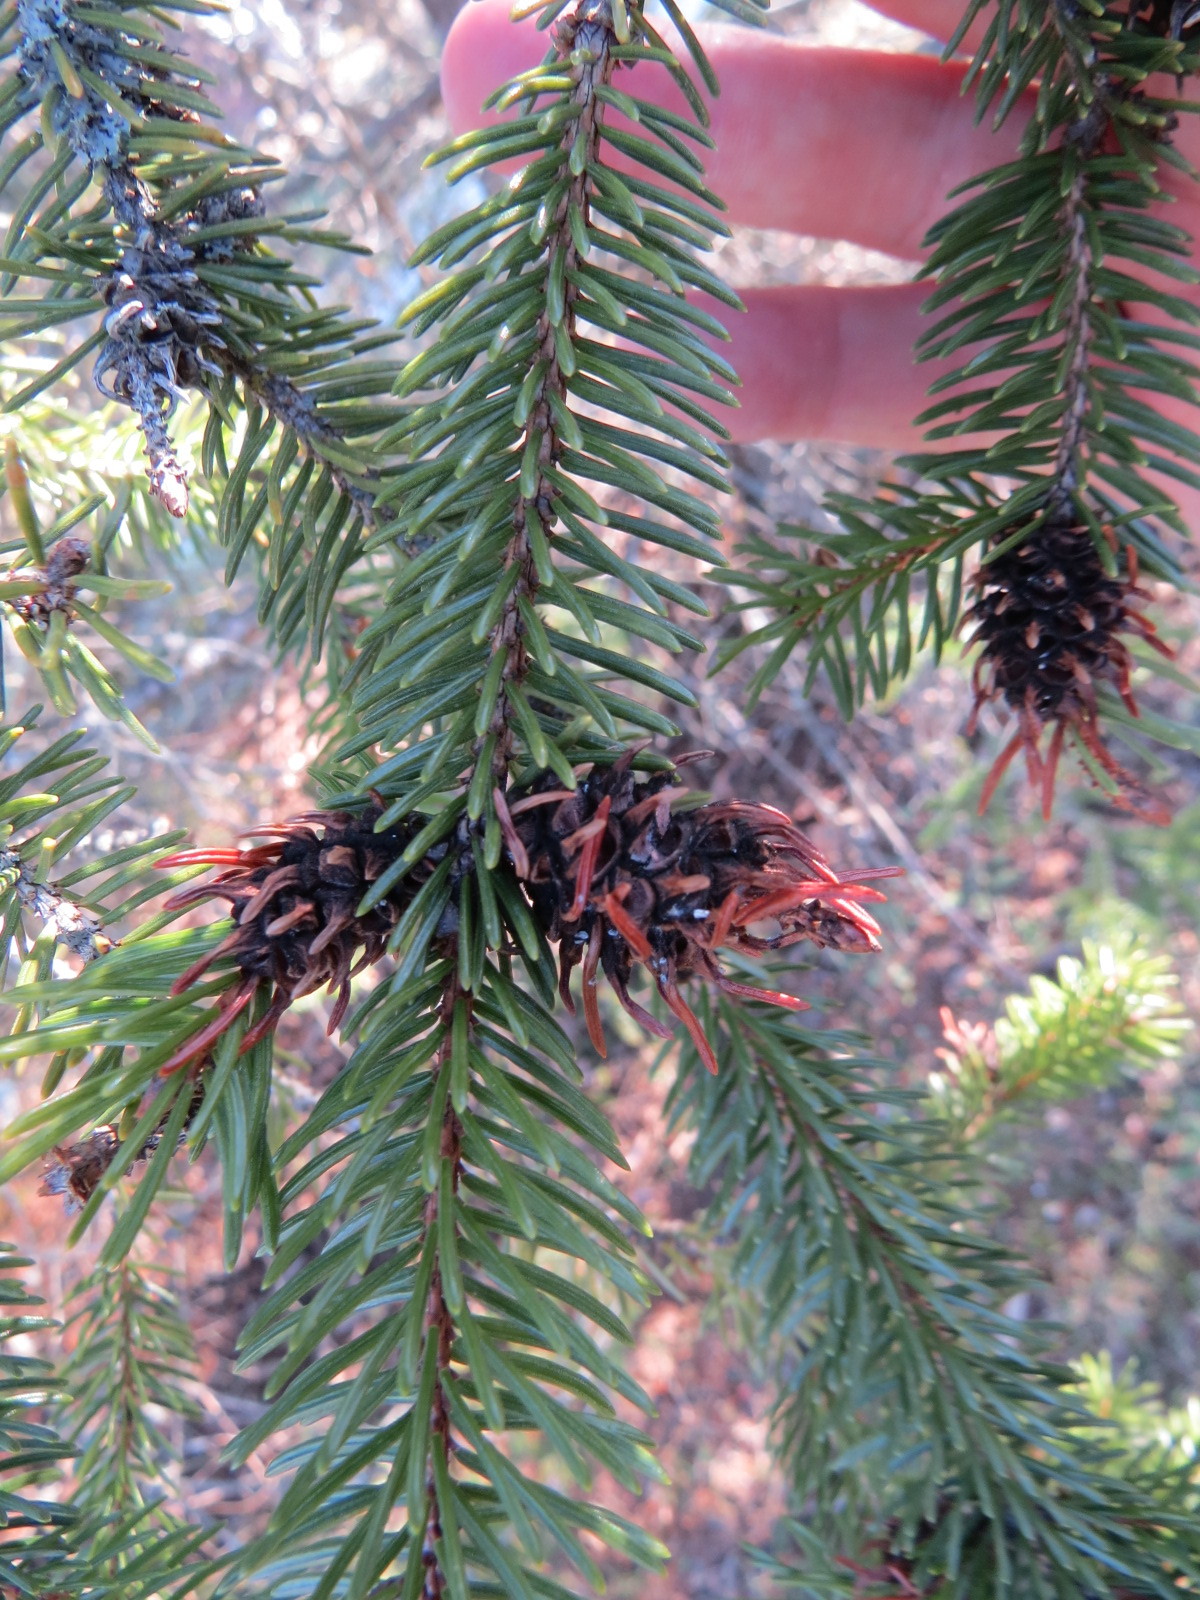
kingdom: Animalia
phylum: Arthropoda
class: Insecta
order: Hemiptera
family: Adelgidae
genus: Adelges
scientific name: Adelges abietis
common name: Eastern spruce gall adelgid
